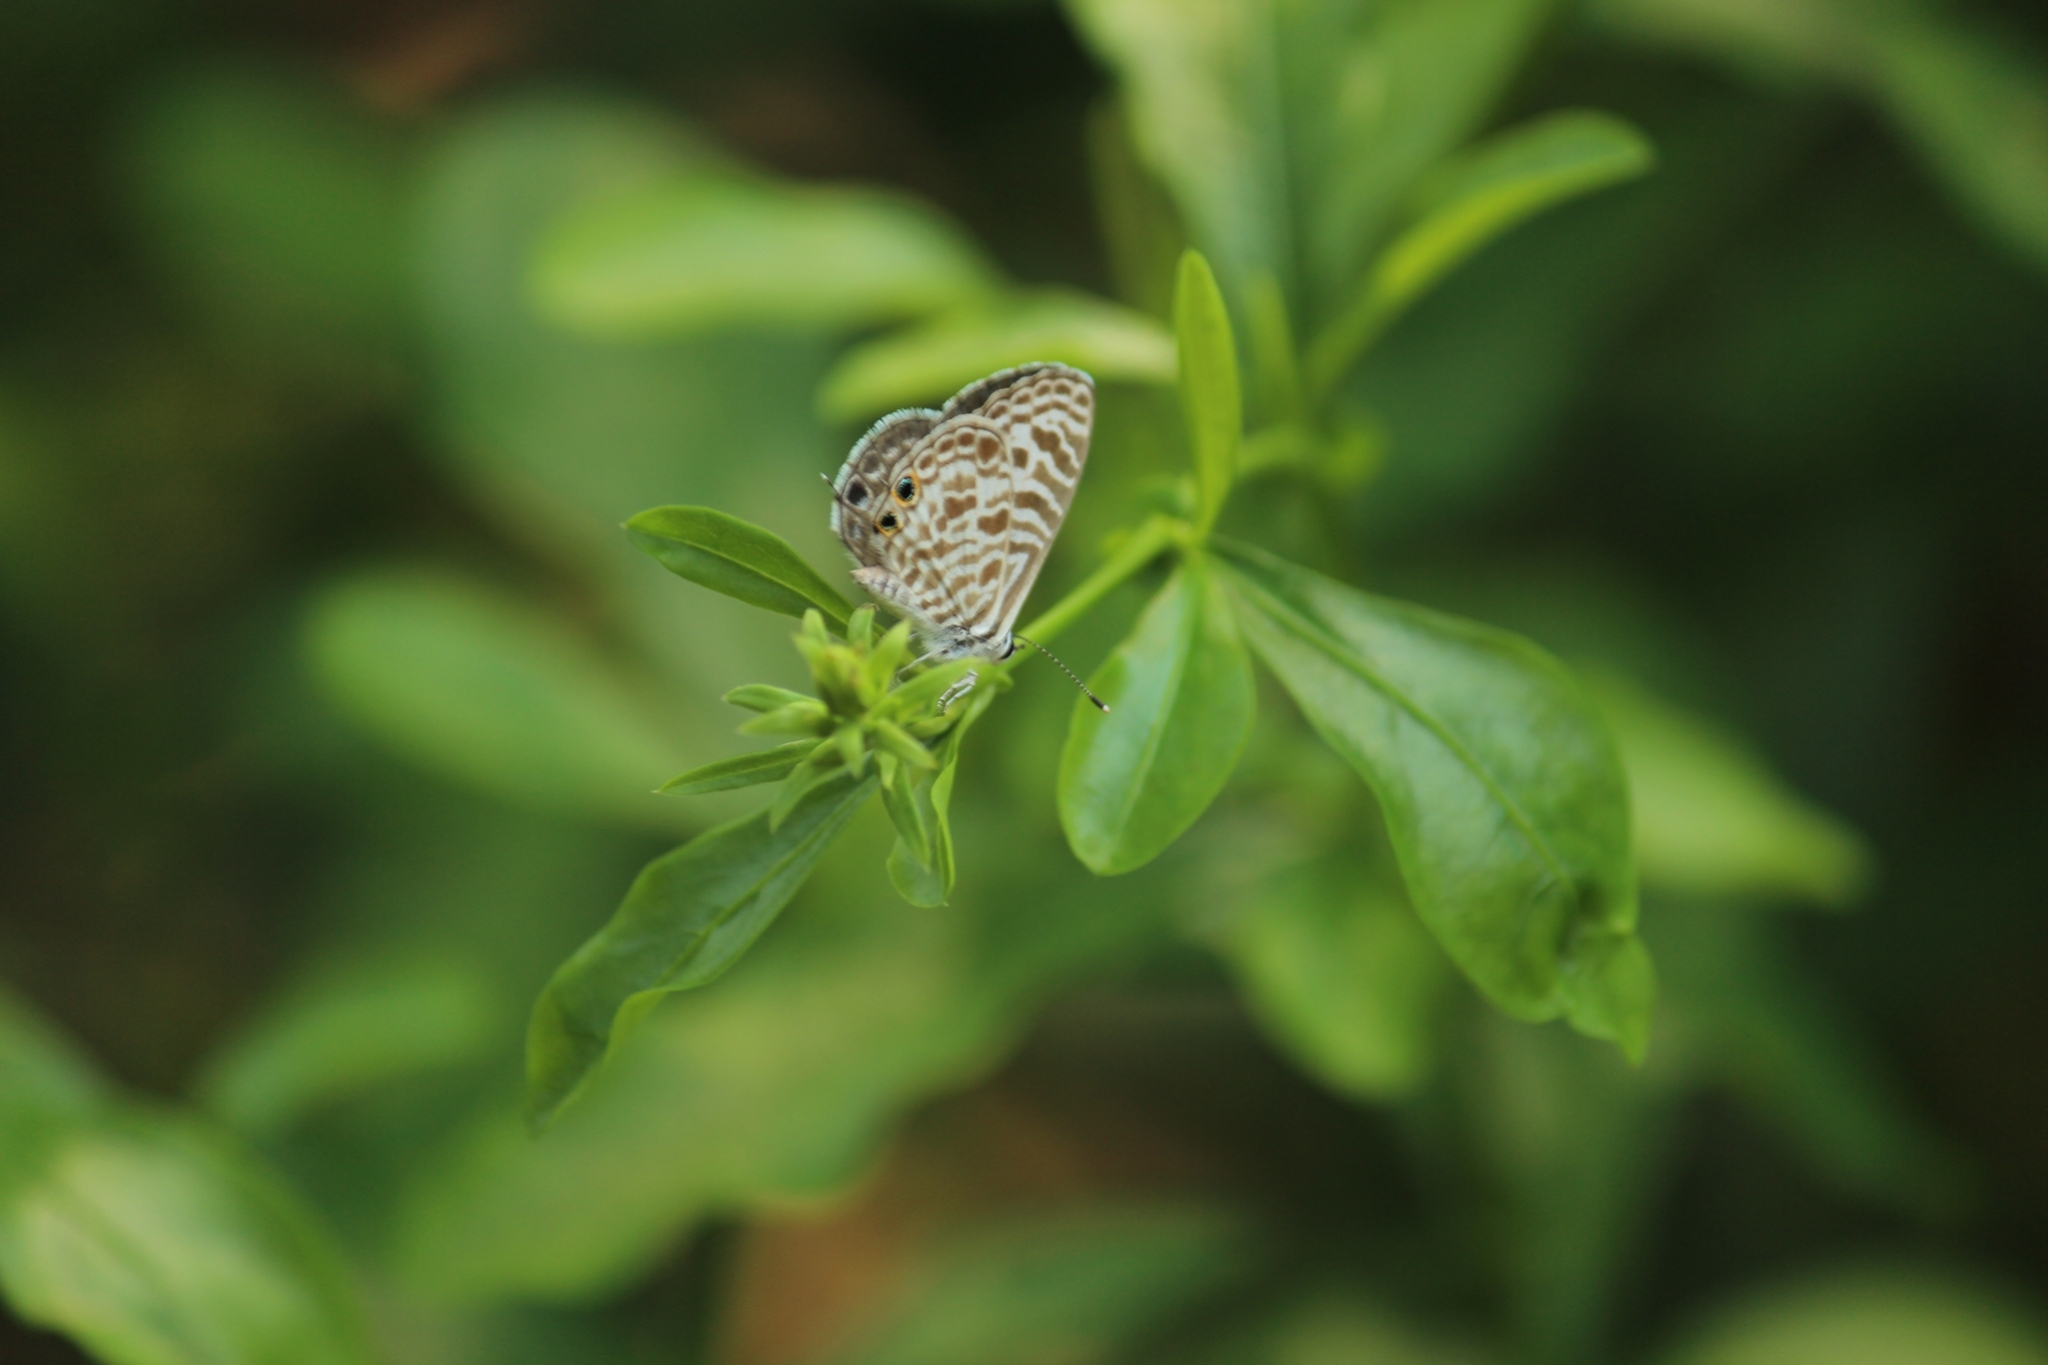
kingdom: Animalia
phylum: Arthropoda
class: Insecta
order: Lepidoptera
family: Lycaenidae
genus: Leptotes
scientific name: Leptotes plinius
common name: Zebra blue
